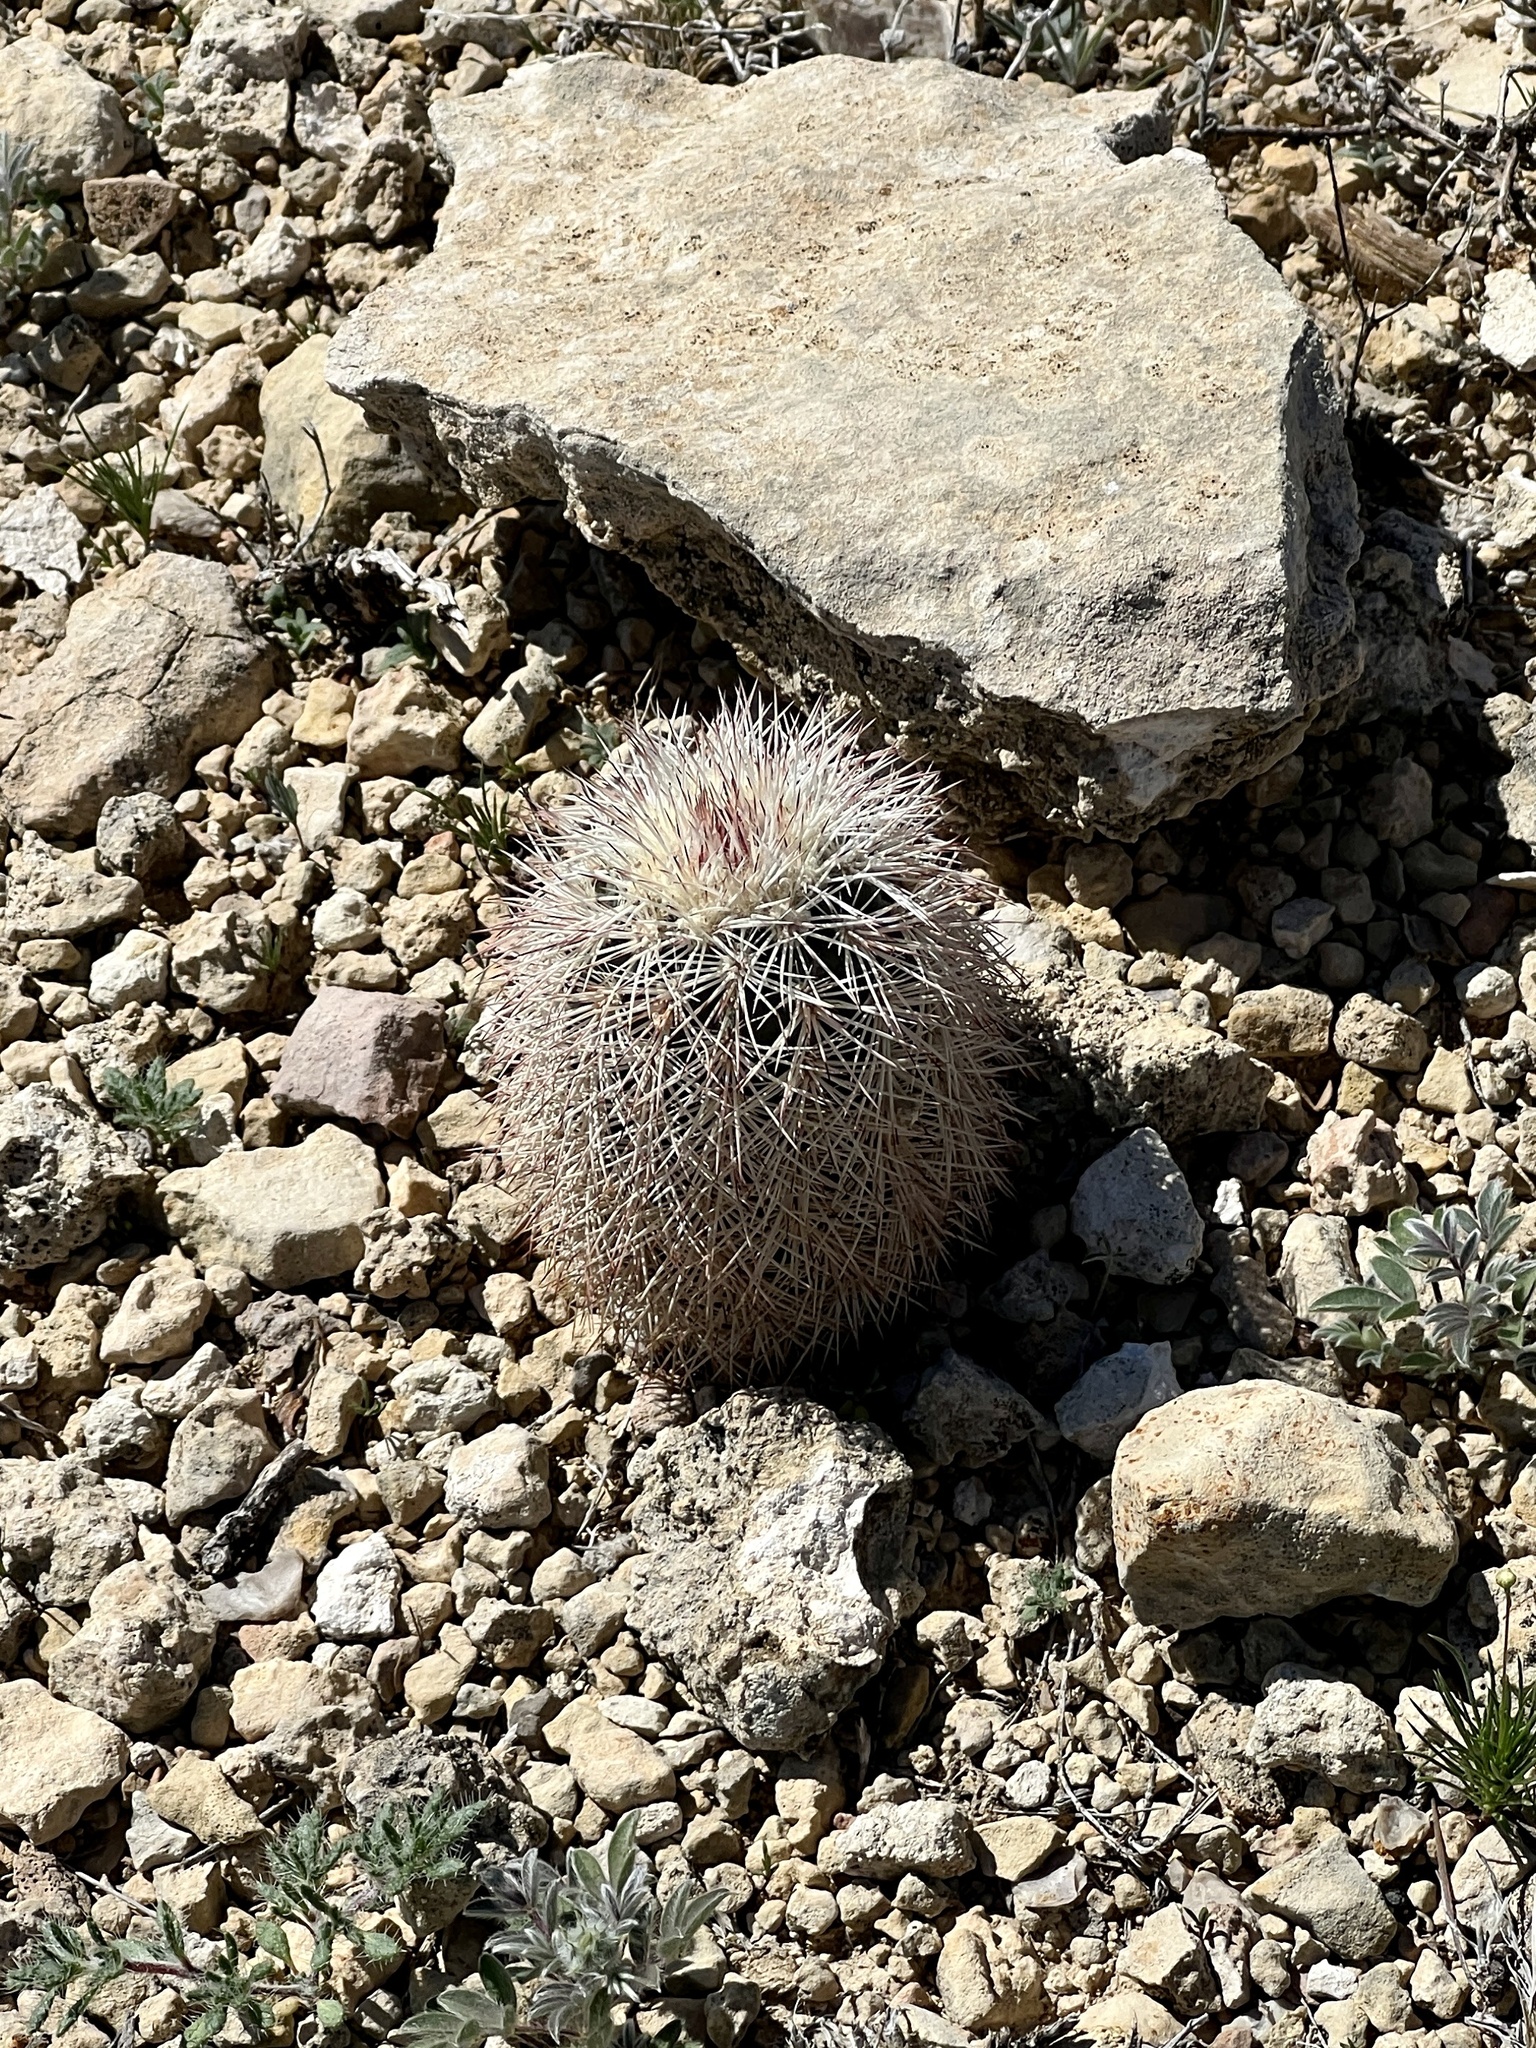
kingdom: Plantae
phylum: Tracheophyta
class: Magnoliopsida
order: Caryophyllales
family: Cactaceae
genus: Echinocereus
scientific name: Echinocereus dasyacanthus
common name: Spiny hedgehog cactus
